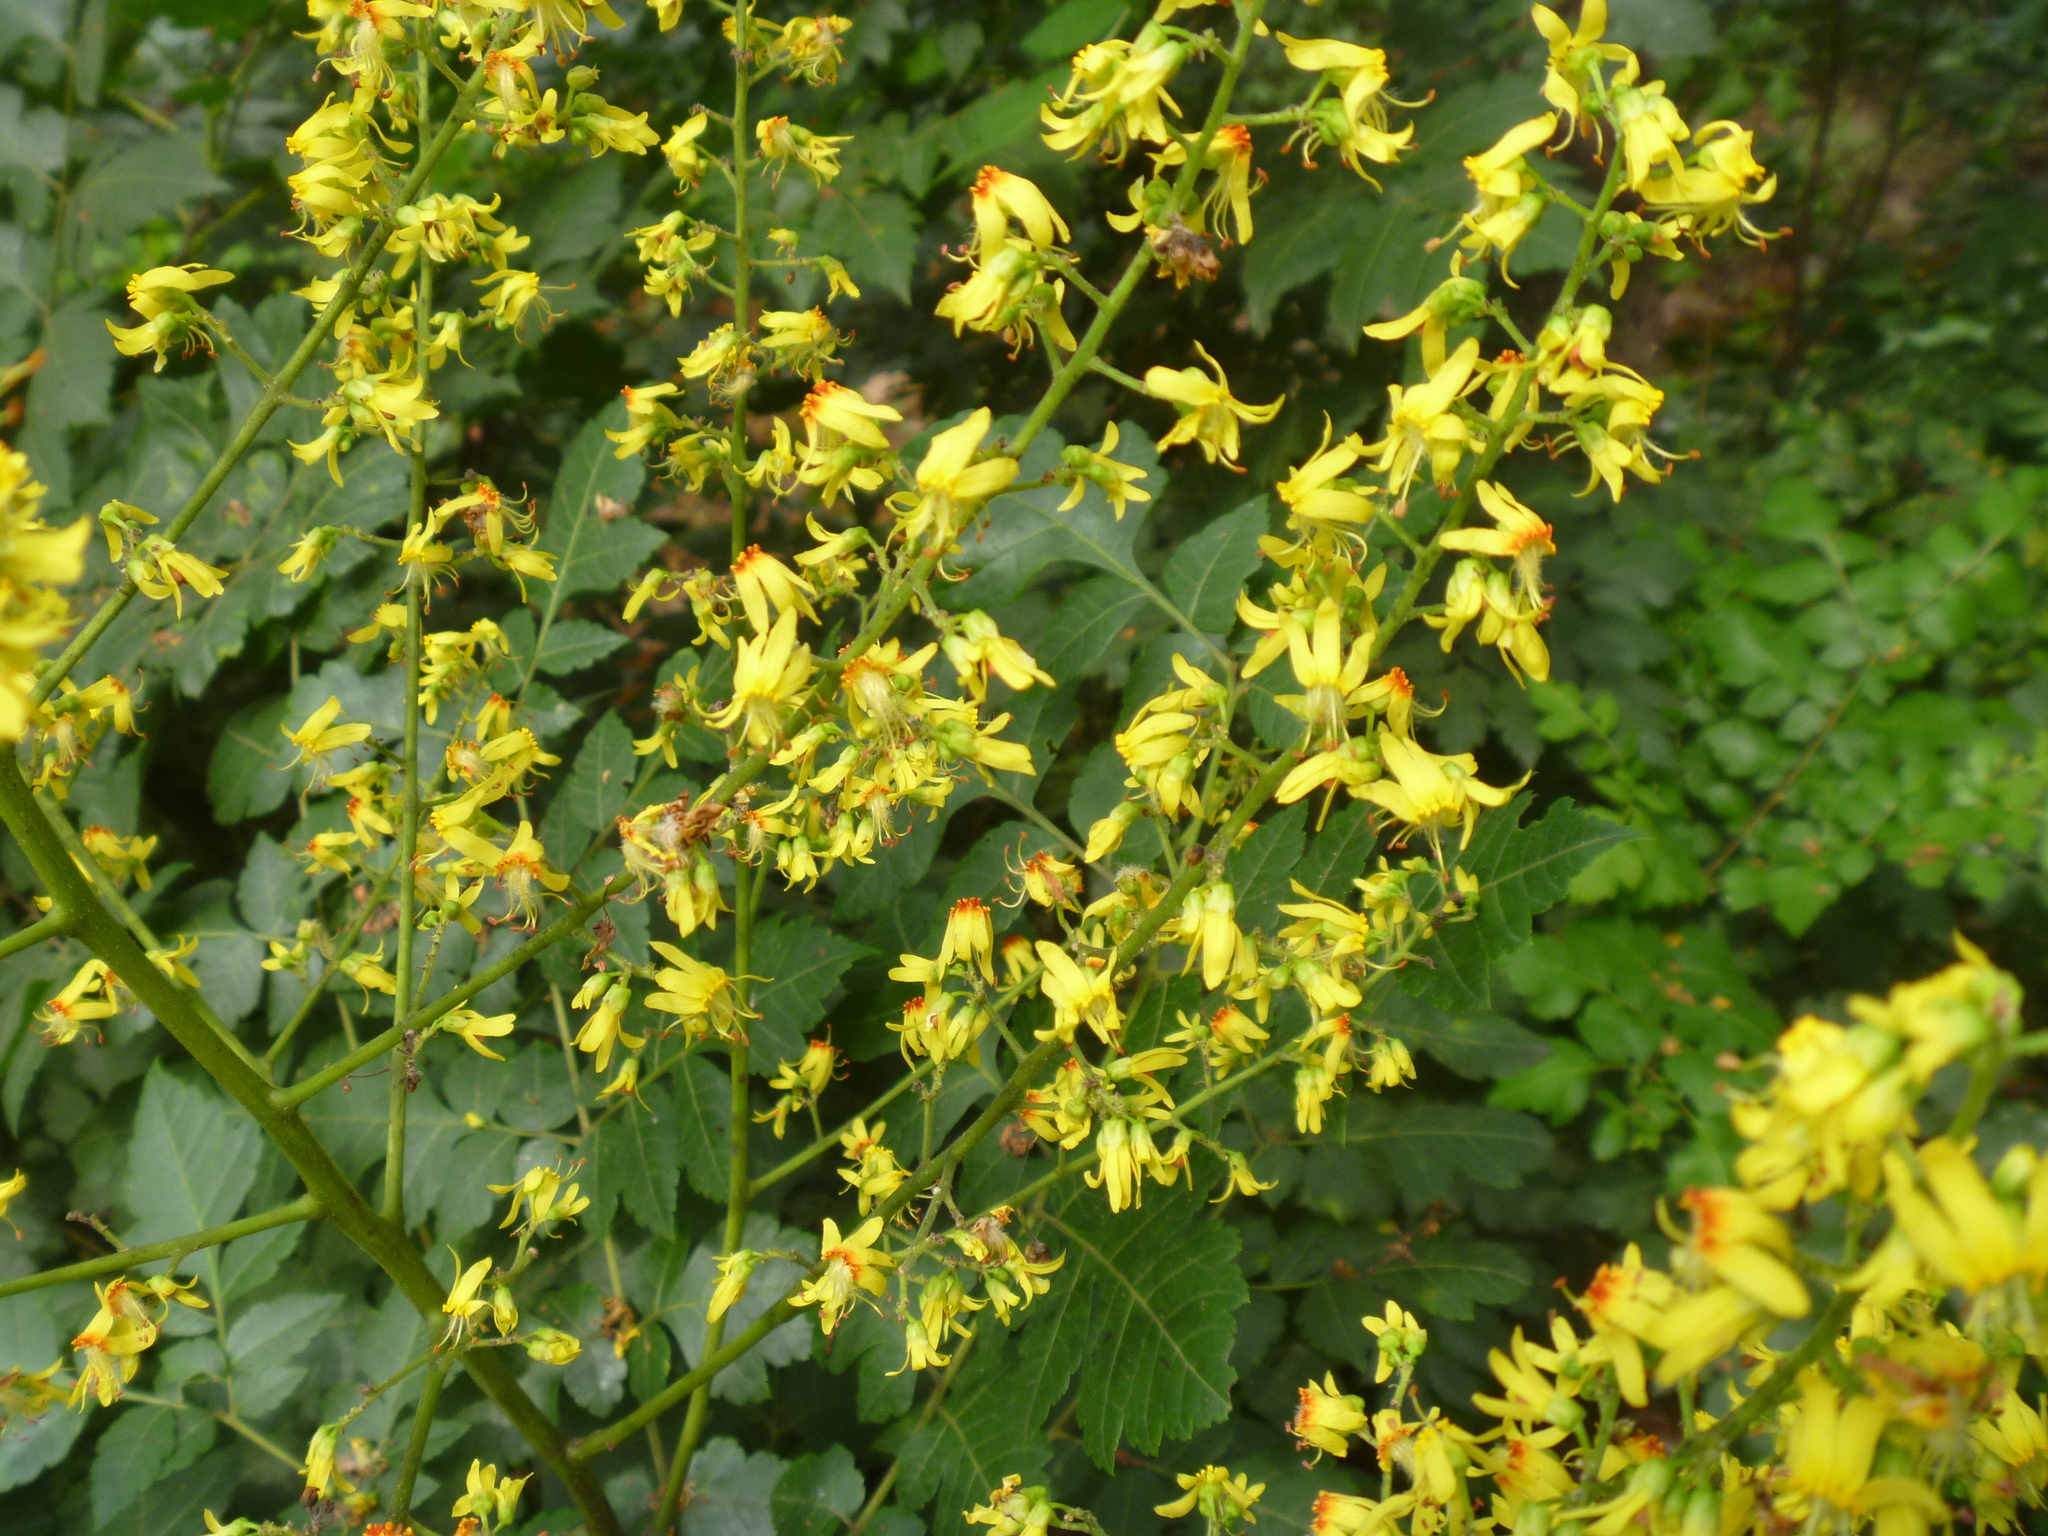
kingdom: Plantae
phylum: Tracheophyta
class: Magnoliopsida
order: Sapindales
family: Sapindaceae
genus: Koelreuteria
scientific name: Koelreuteria paniculata
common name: Pride-of-india
